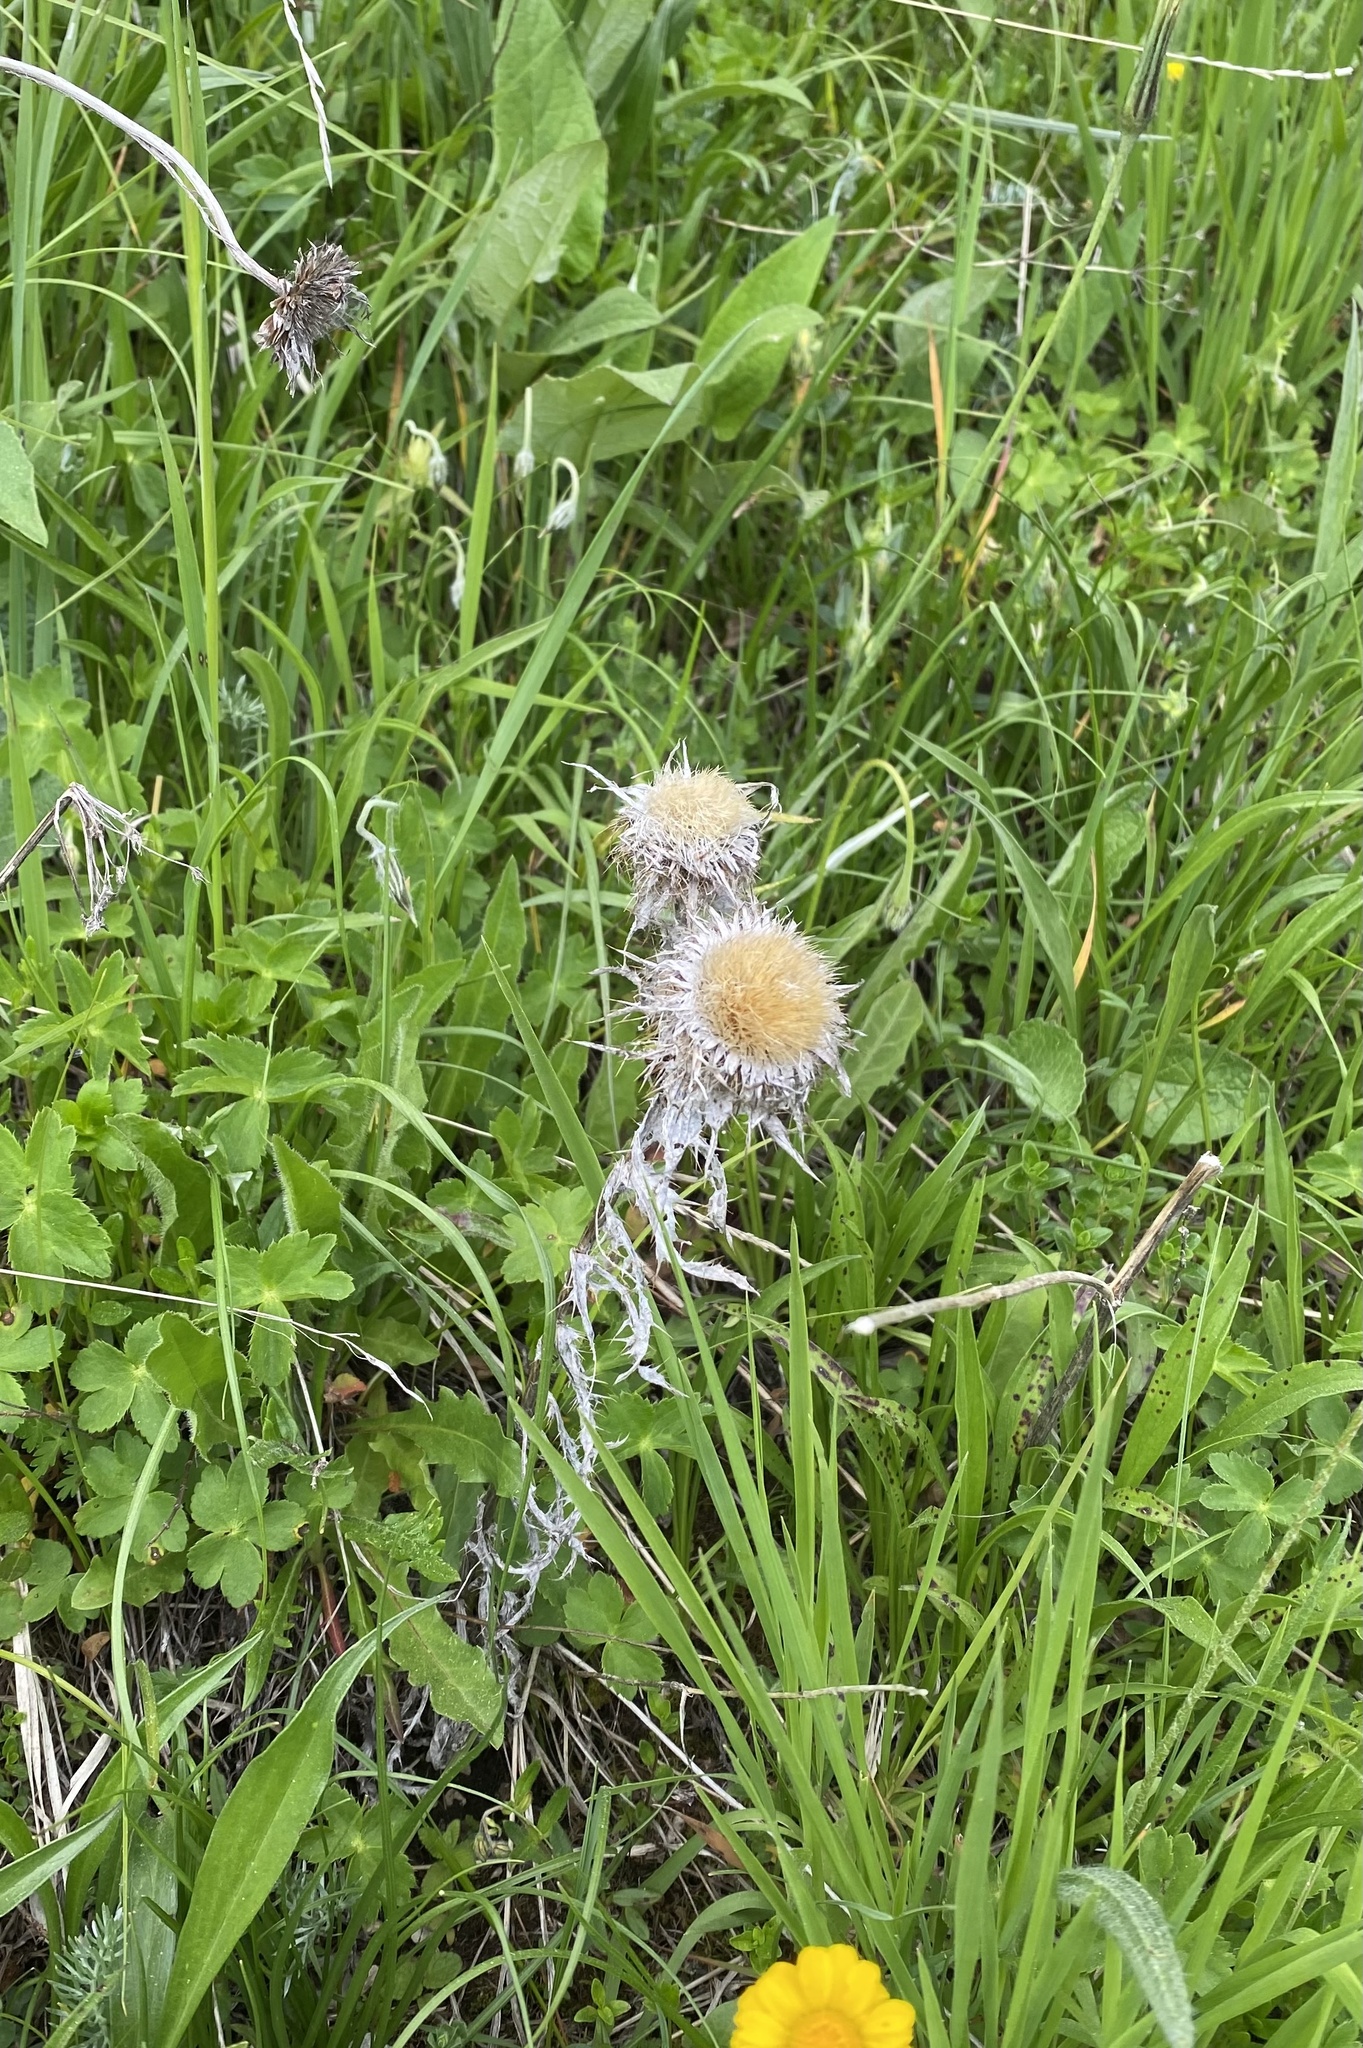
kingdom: Plantae
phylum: Tracheophyta
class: Magnoliopsida
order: Asterales
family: Asteraceae
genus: Carlina
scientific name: Carlina biebersteinii
